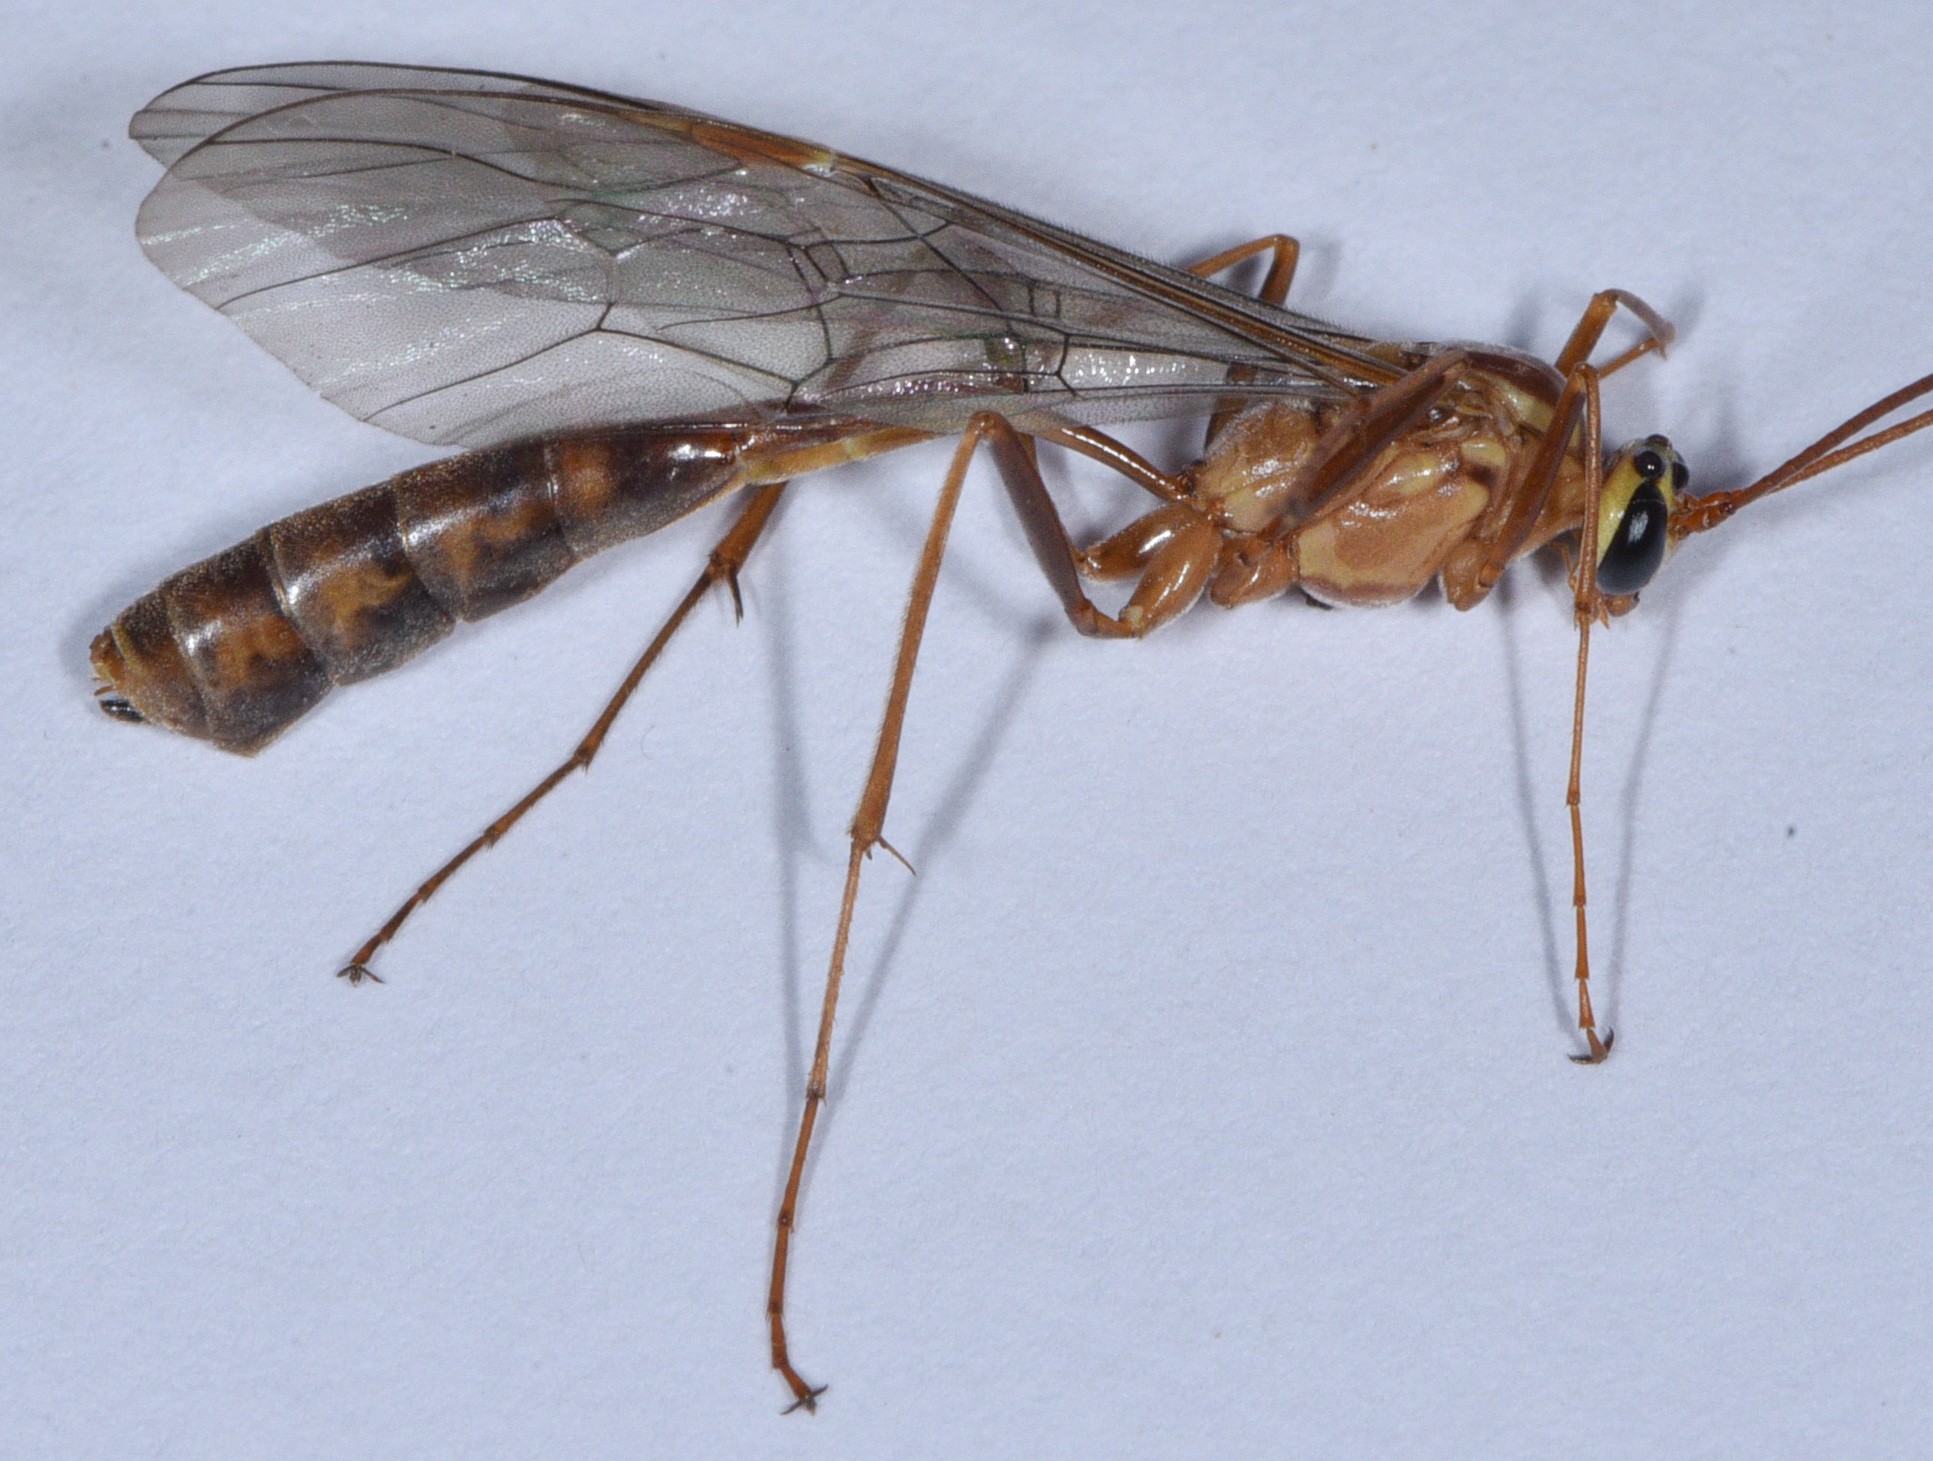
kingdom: Animalia
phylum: Arthropoda
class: Insecta
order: Hymenoptera
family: Ichneumonidae
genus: Ophion
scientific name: Ophion
